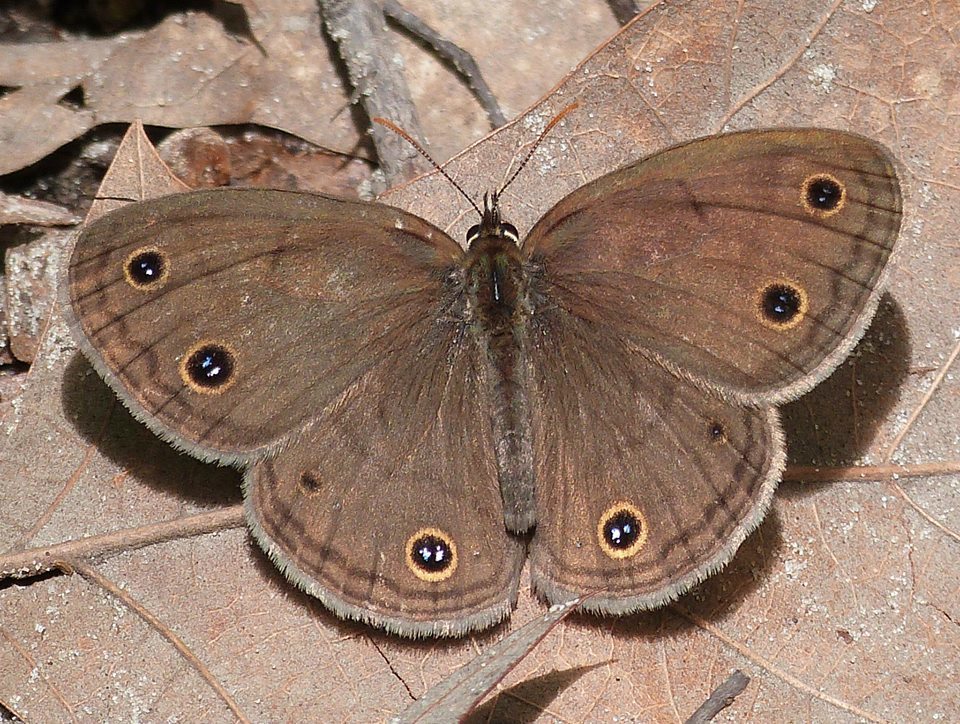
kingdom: Animalia
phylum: Arthropoda
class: Insecta
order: Lepidoptera
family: Nymphalidae
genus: Euptychia
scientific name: Euptychia cymela
